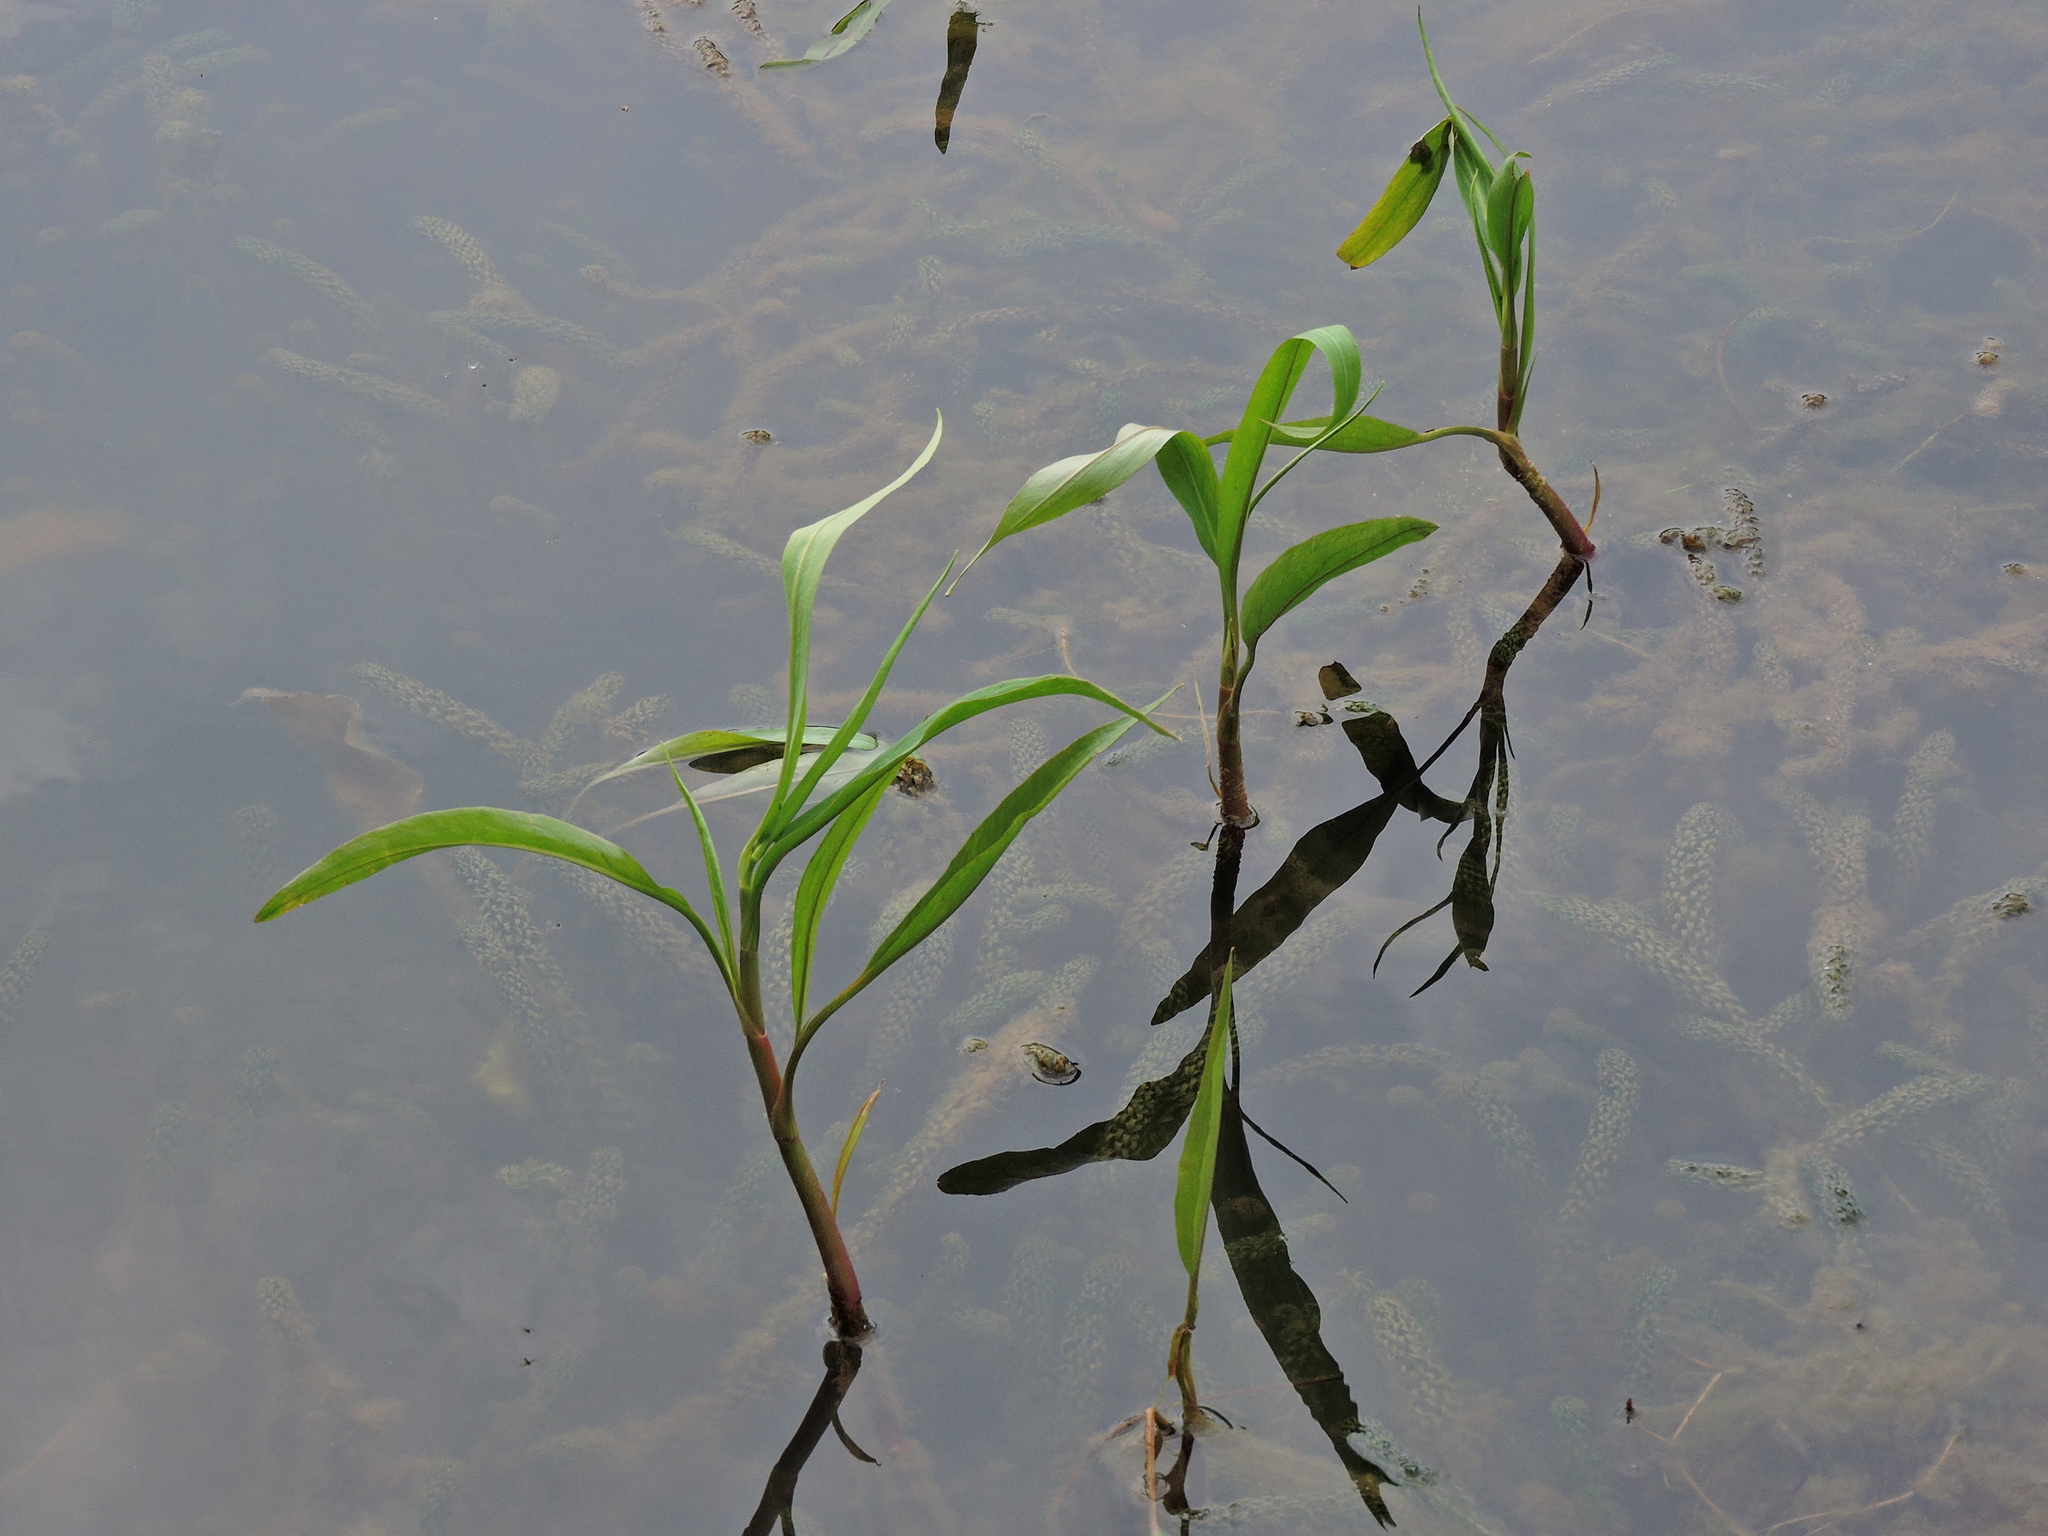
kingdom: Plantae
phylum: Tracheophyta
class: Magnoliopsida
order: Ranunculales
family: Ranunculaceae
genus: Ranunculus
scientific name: Ranunculus flammula
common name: Lesser spearwort
